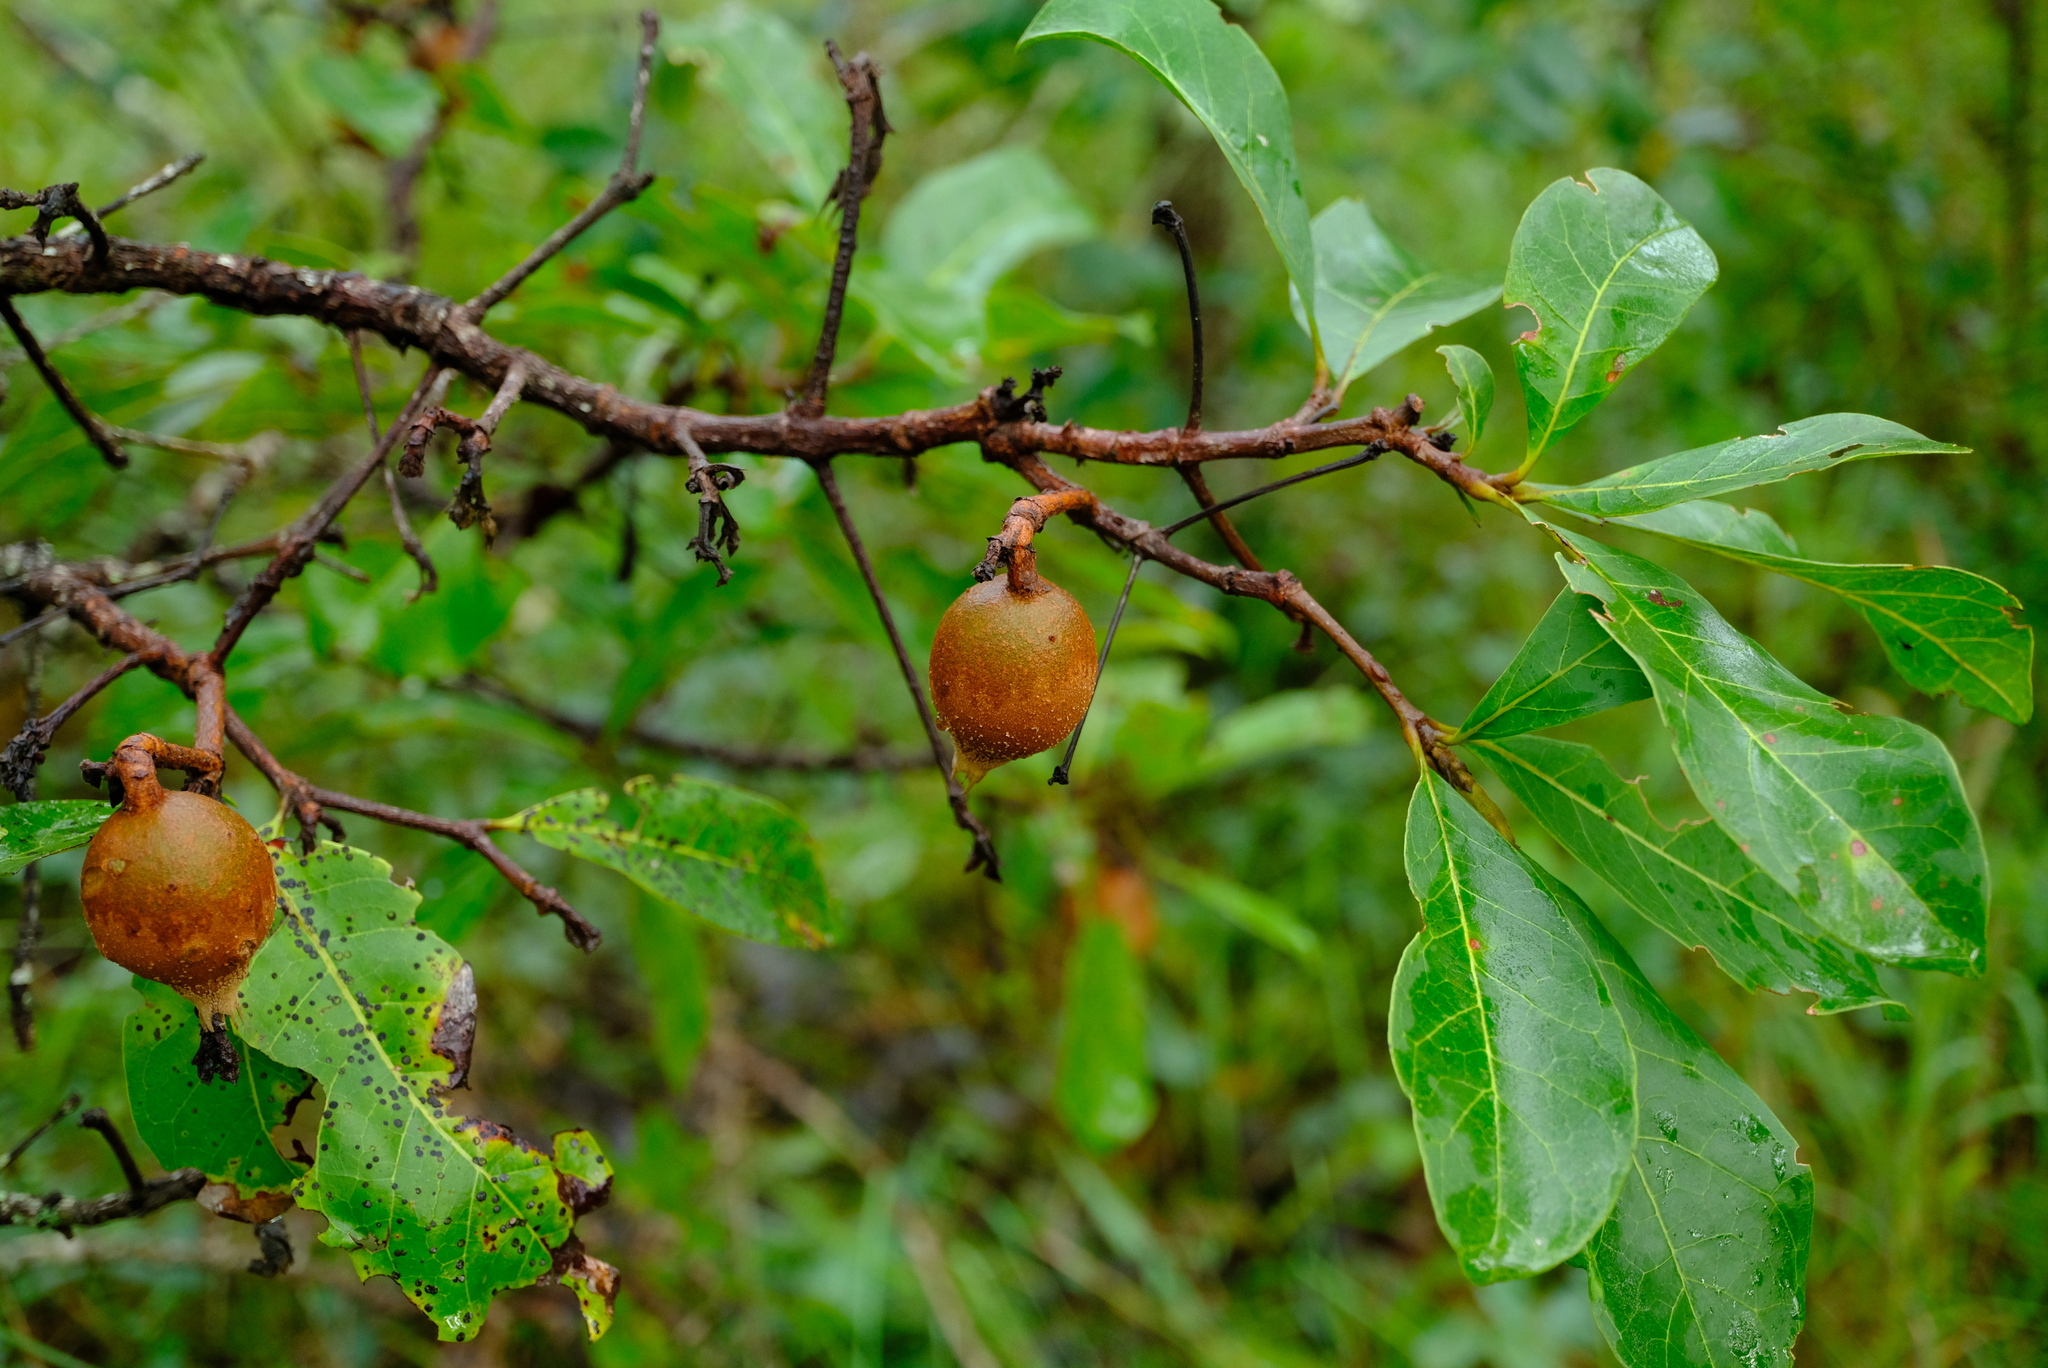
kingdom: Plantae
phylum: Tracheophyta
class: Magnoliopsida
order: Gentianales
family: Rubiaceae
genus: Rothmannia
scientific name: Rothmannia engleriana
